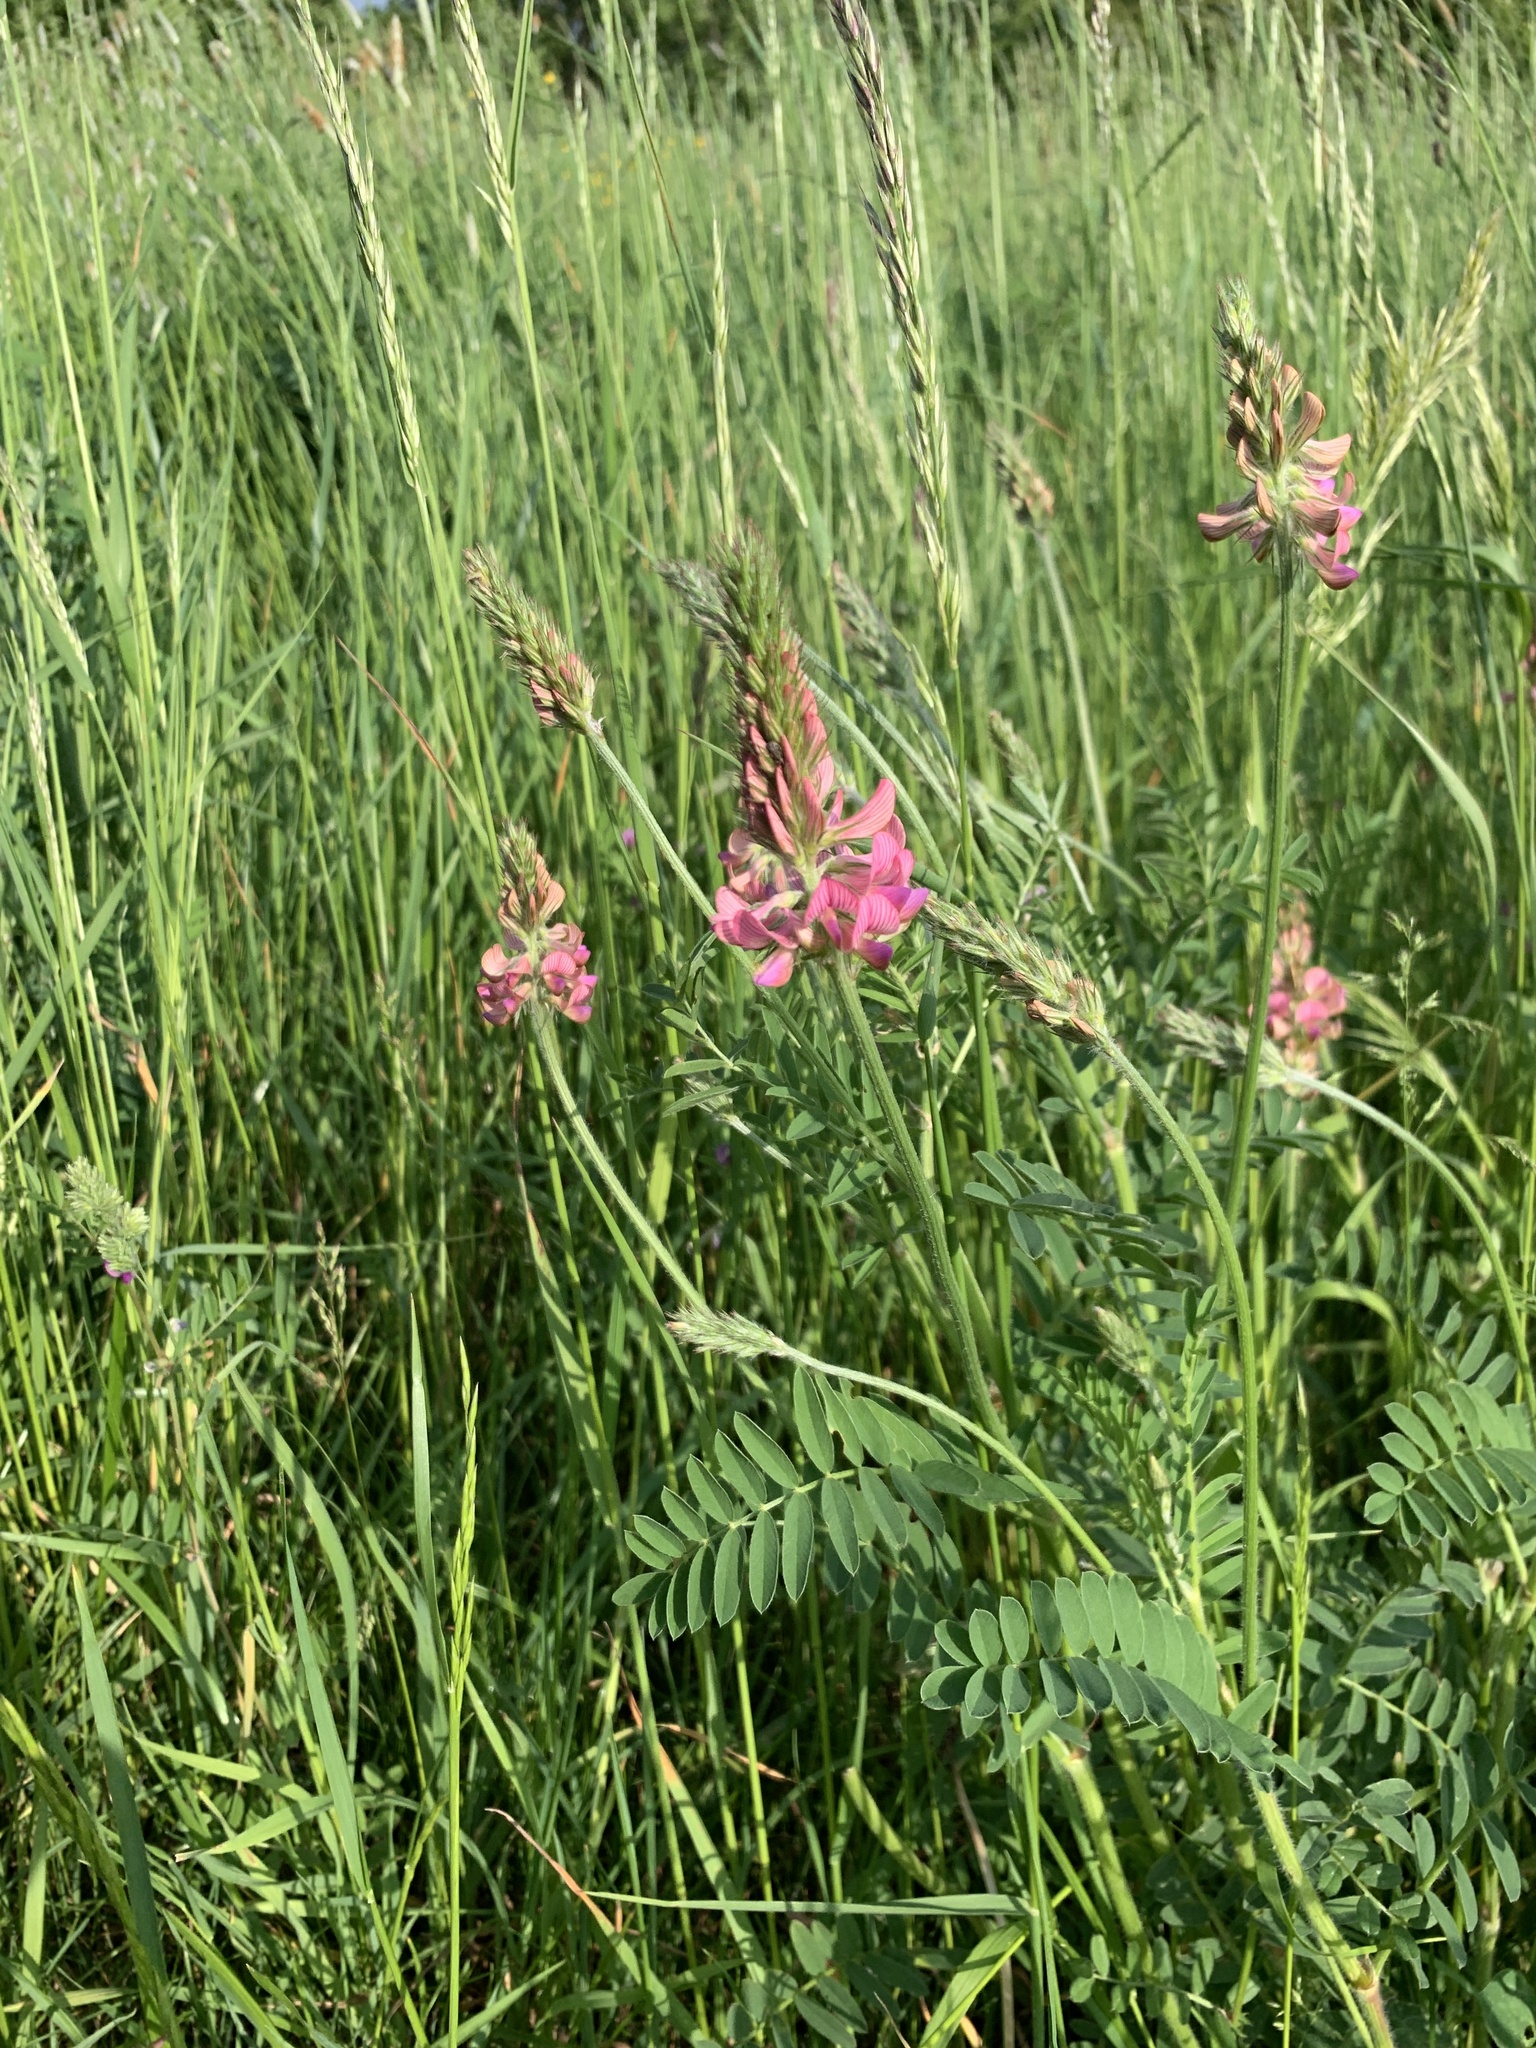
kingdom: Plantae
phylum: Tracheophyta
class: Magnoliopsida
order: Fabales
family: Fabaceae
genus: Onobrychis
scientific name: Onobrychis viciifolia
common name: Sainfoin
